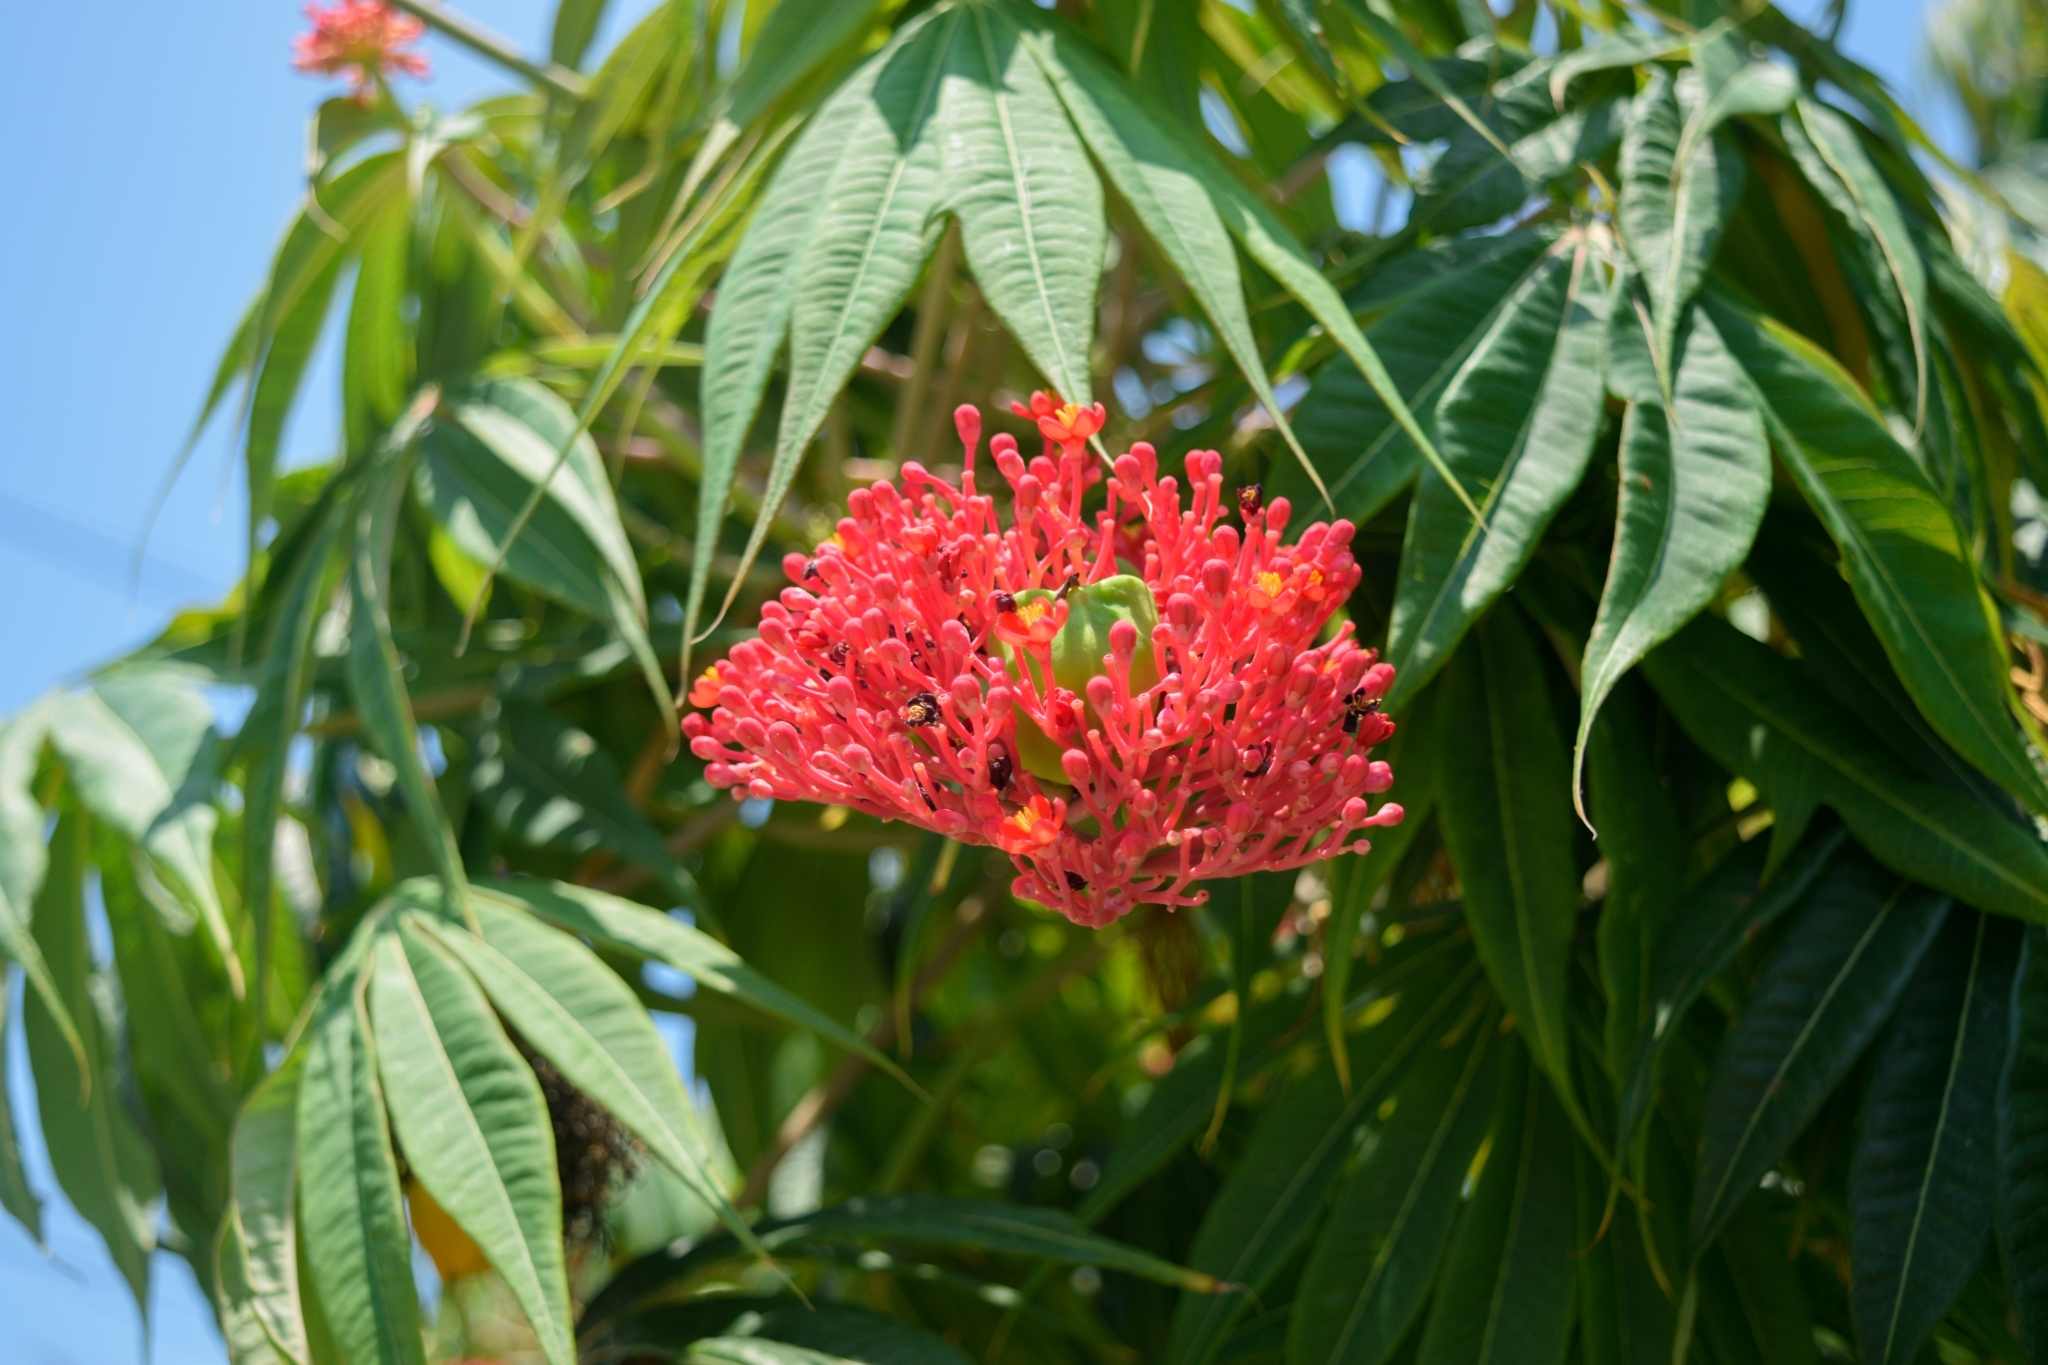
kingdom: Plantae
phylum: Tracheophyta
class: Magnoliopsida
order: Malpighiales
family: Euphorbiaceae
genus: Jatropha
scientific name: Jatropha podagrica
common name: Gout stalk
